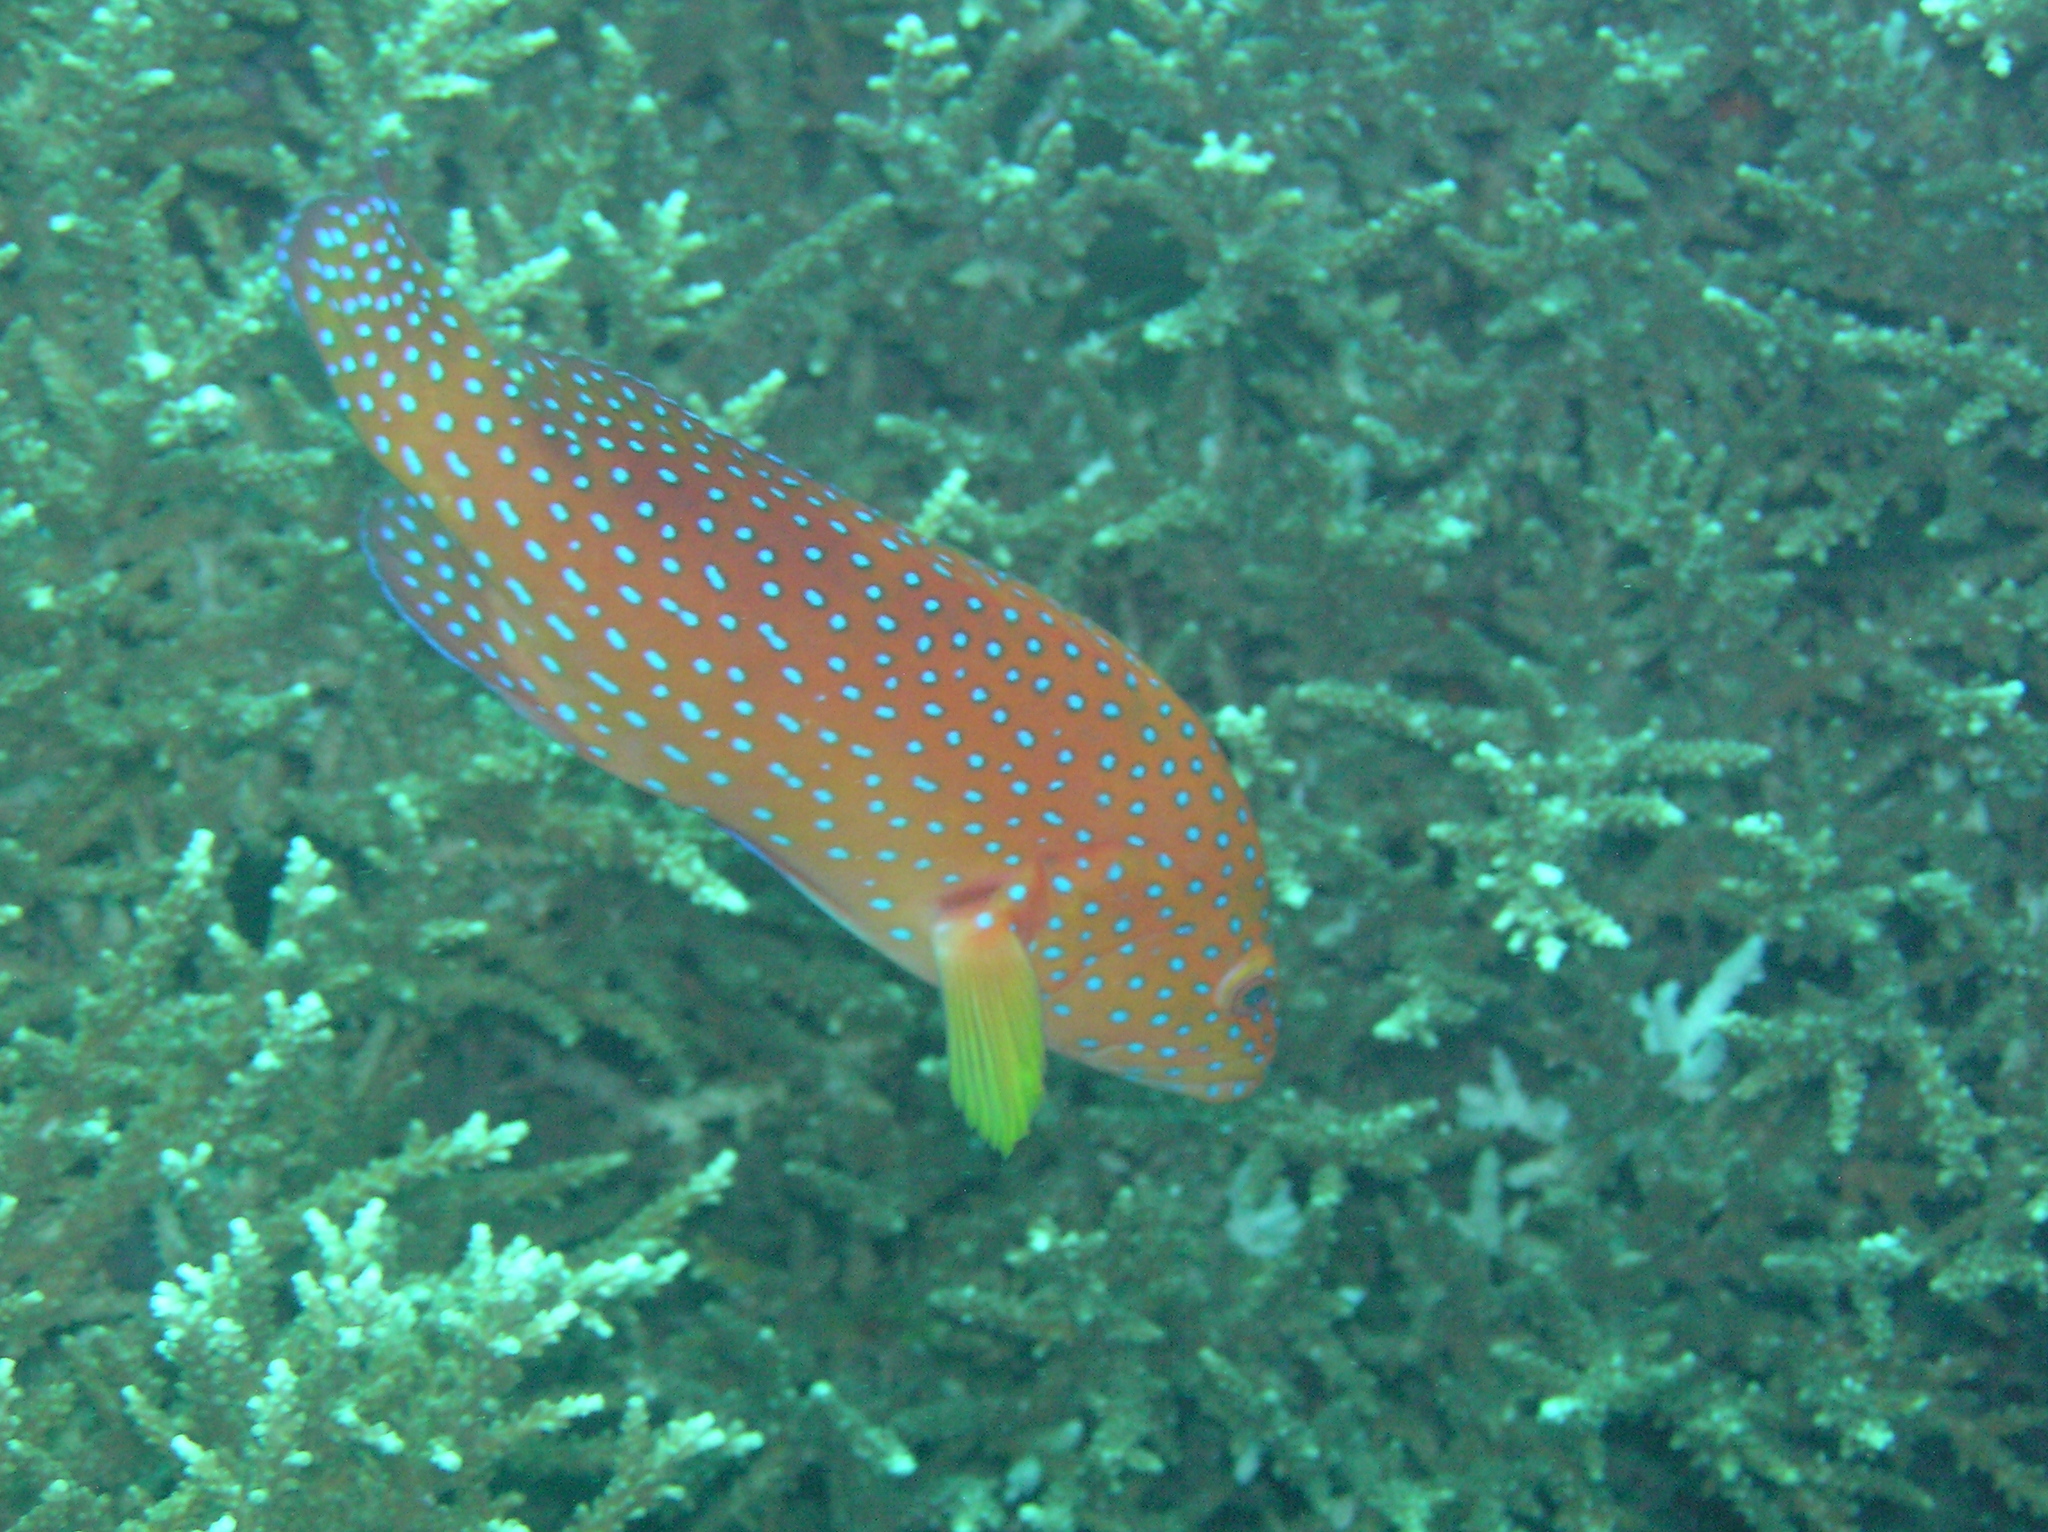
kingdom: Animalia
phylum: Chordata
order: Perciformes
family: Serranidae
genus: Cephalopholis
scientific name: Cephalopholis miniata
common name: Coral hind
